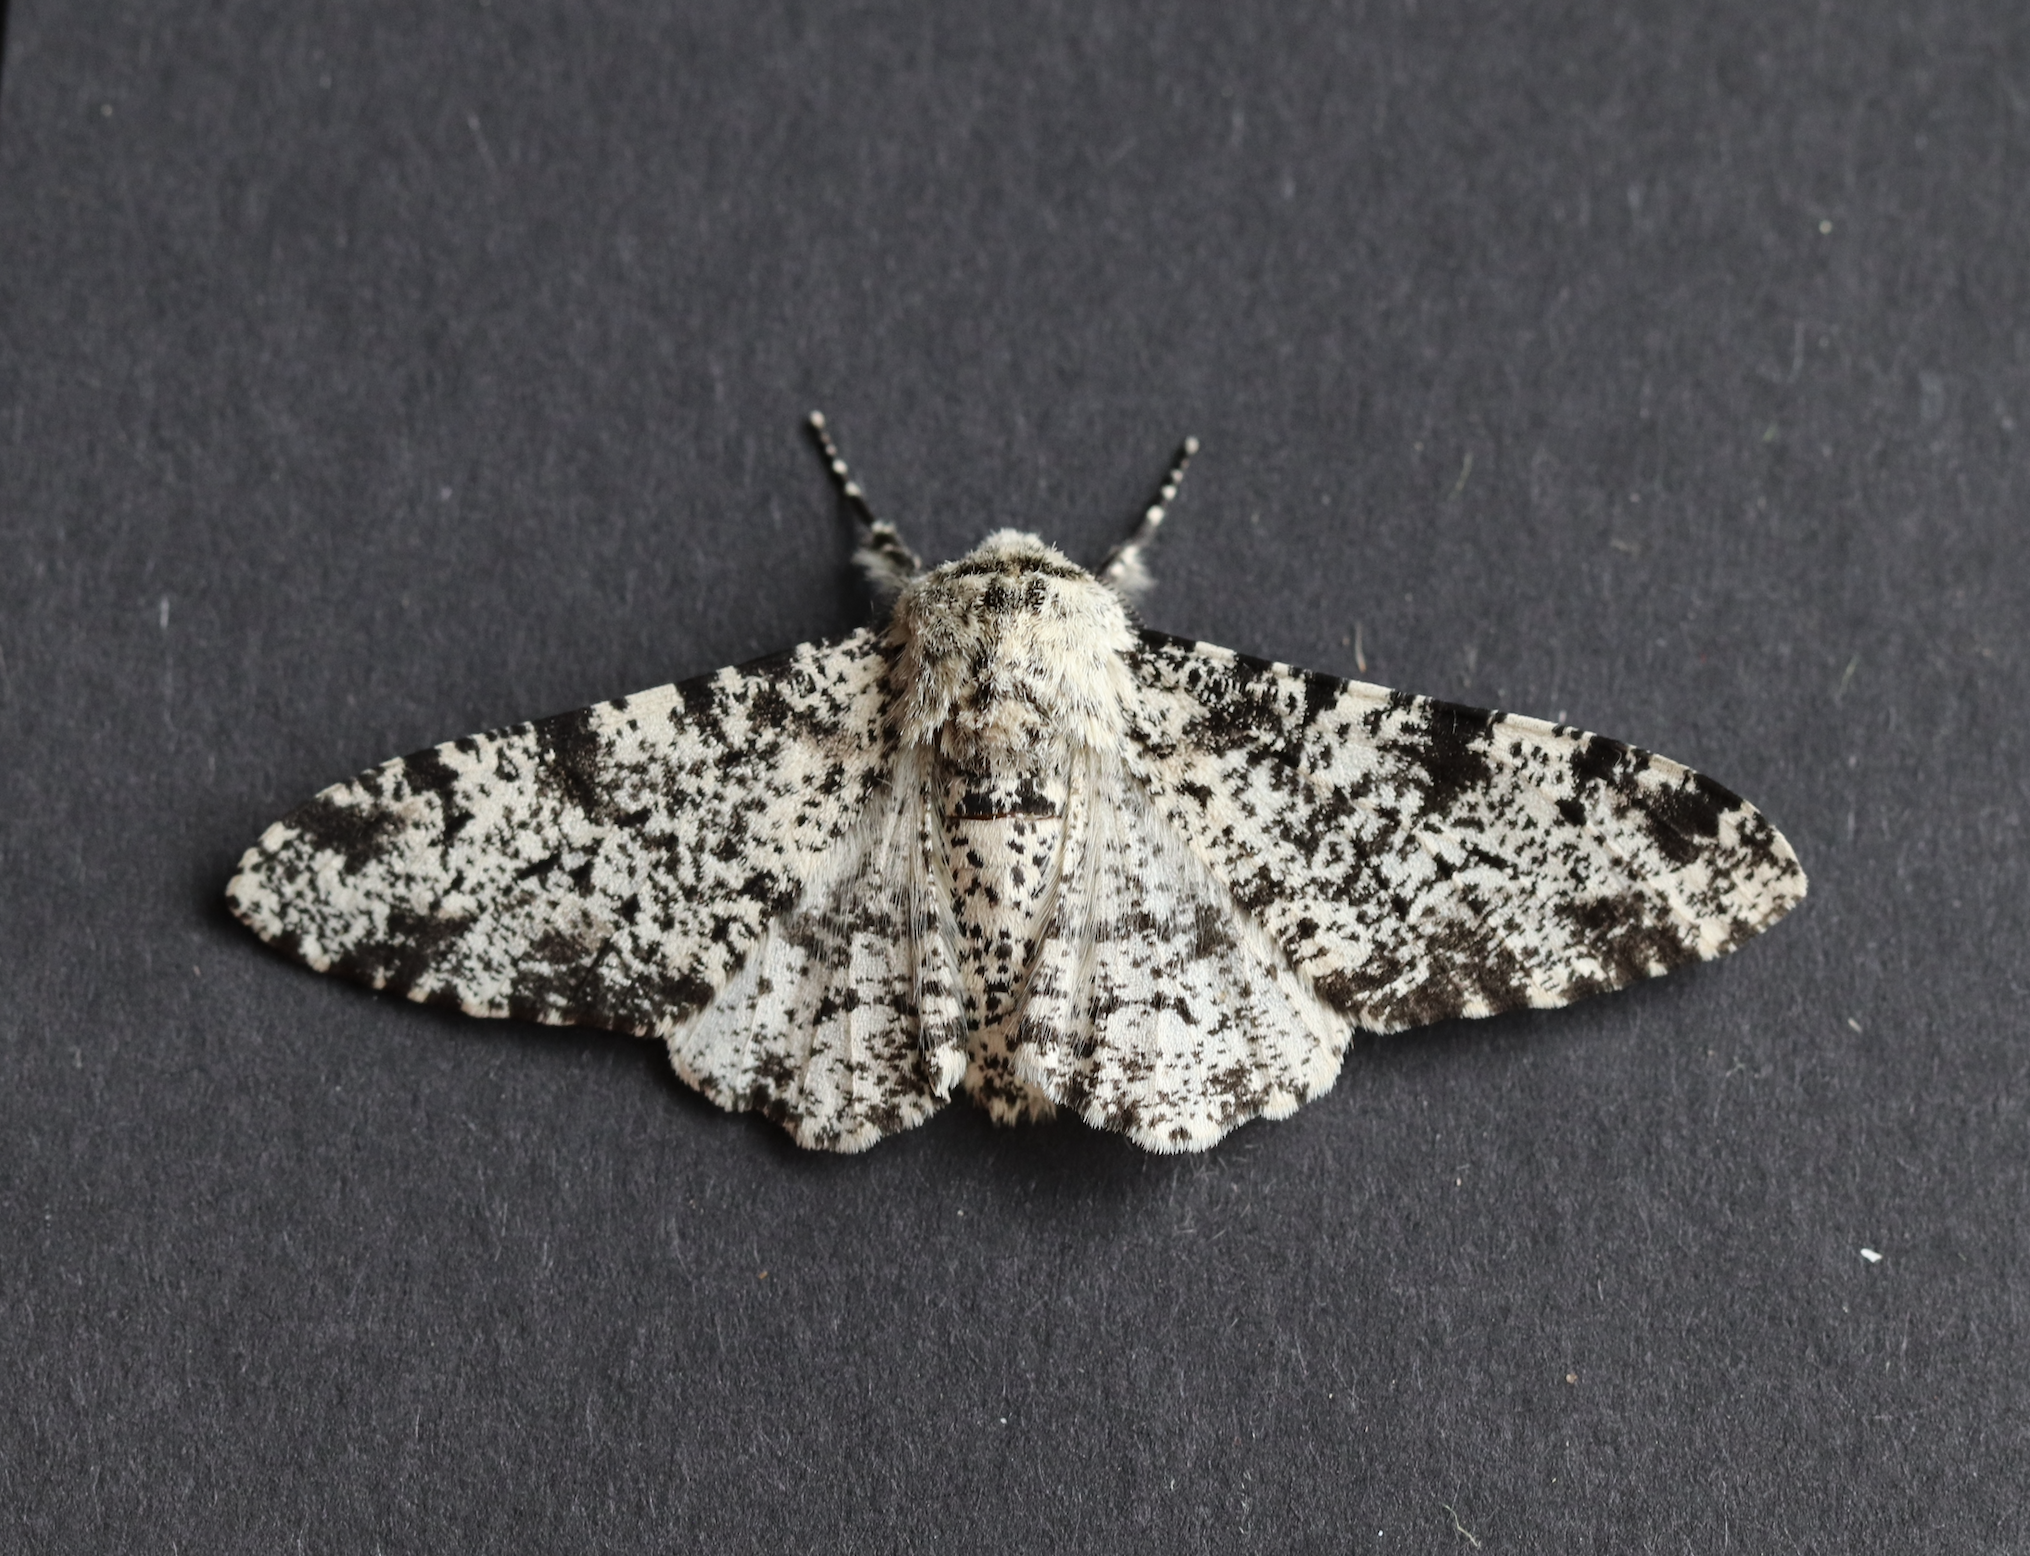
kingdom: Animalia
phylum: Arthropoda
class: Insecta
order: Lepidoptera
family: Geometridae
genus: Biston
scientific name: Biston betularia
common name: Peppered moth
